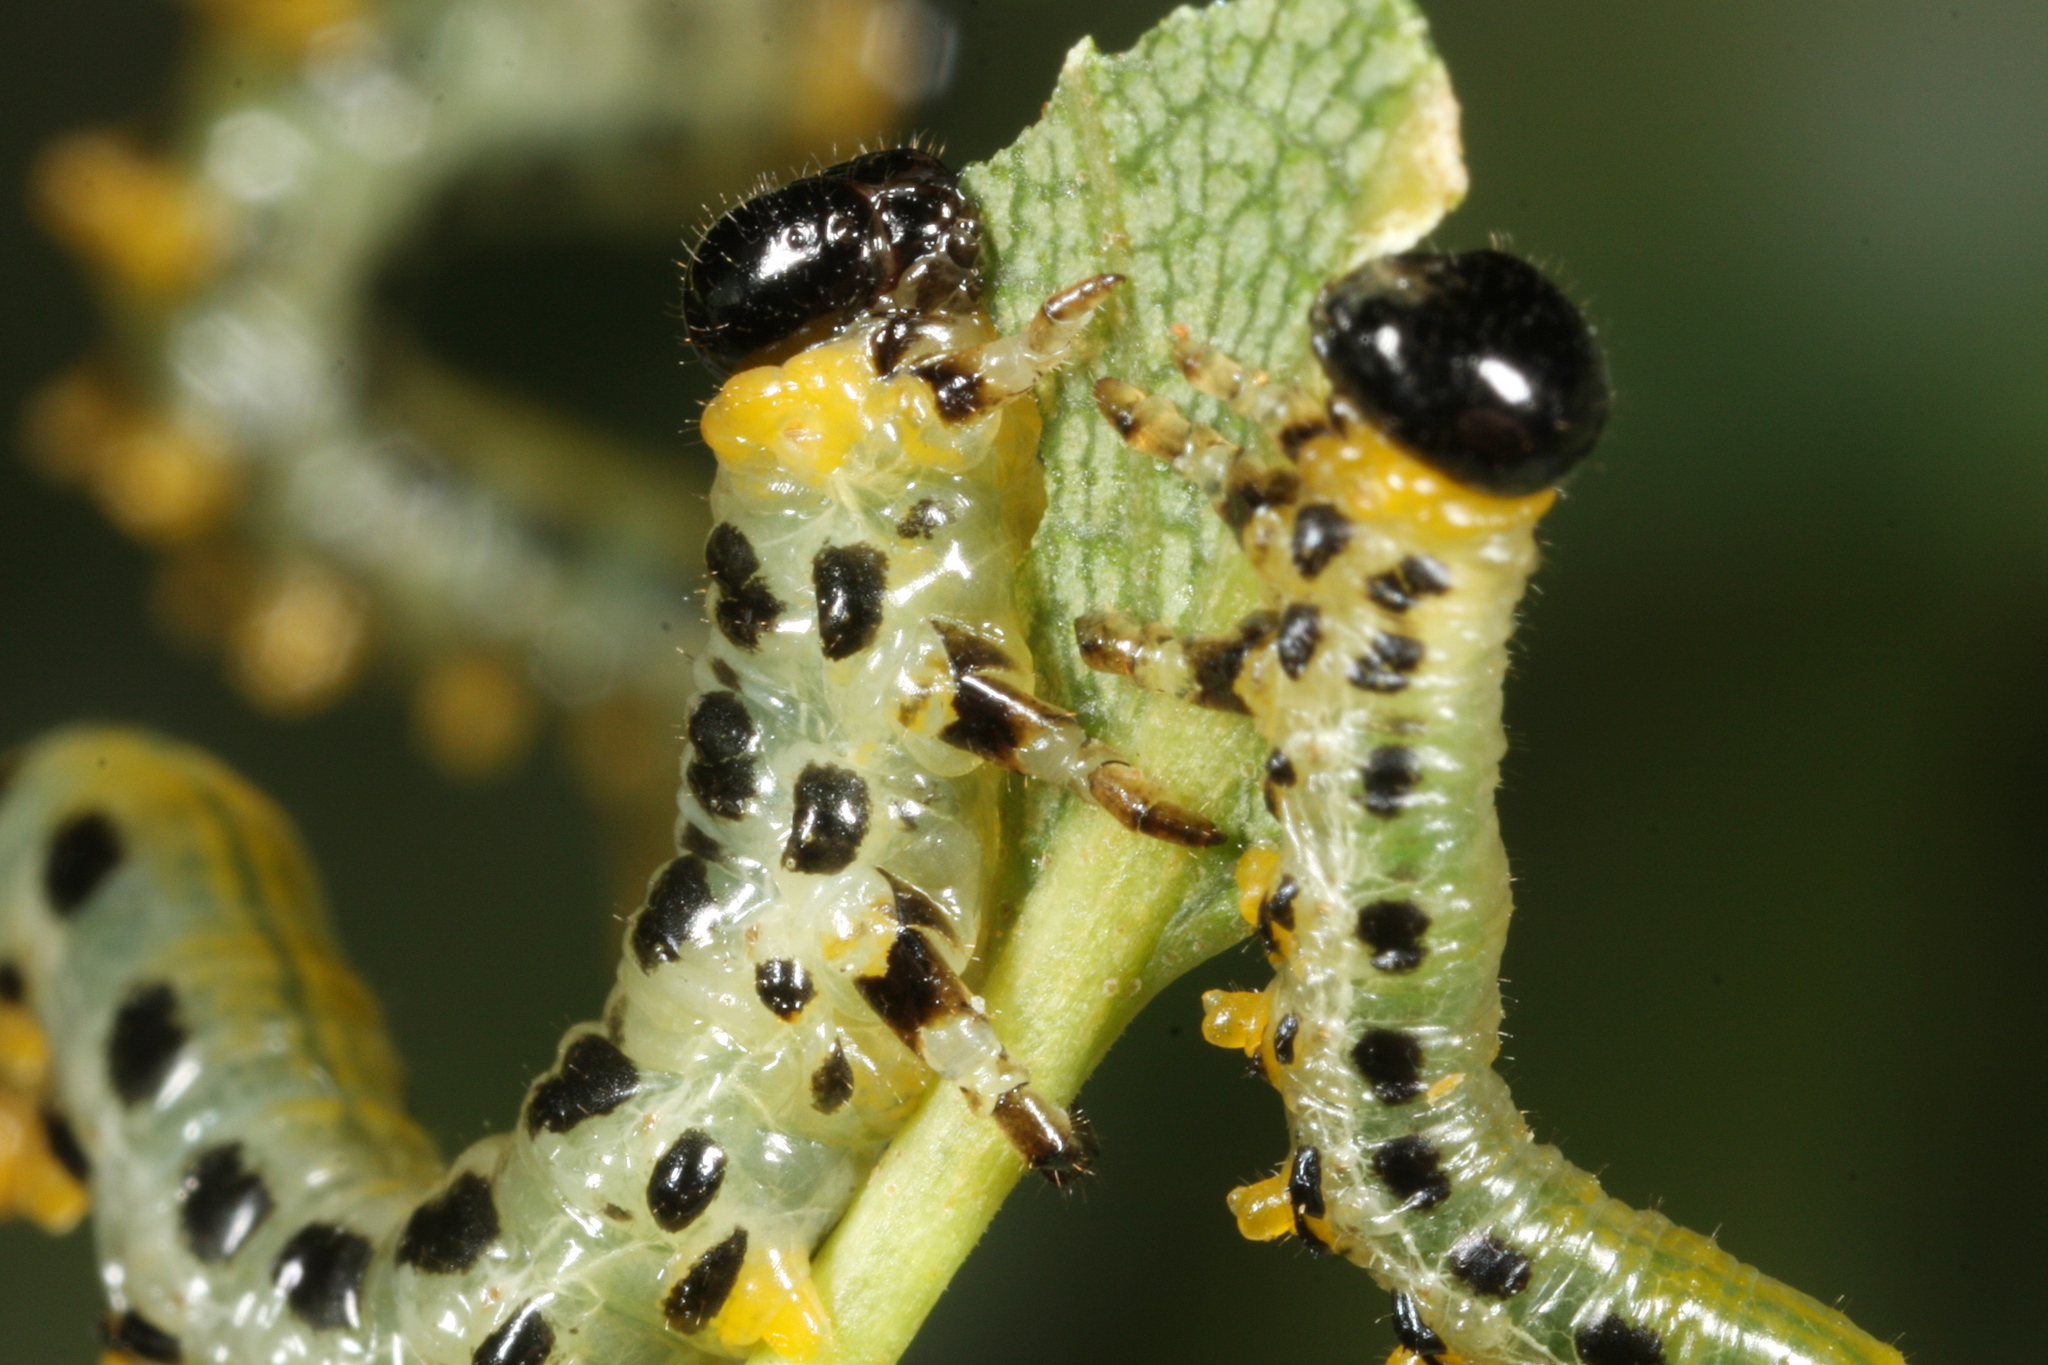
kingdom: Animalia
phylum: Arthropoda
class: Insecta
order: Hymenoptera
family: Tenthredinidae
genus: Craesus
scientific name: Craesus septentrionalis
